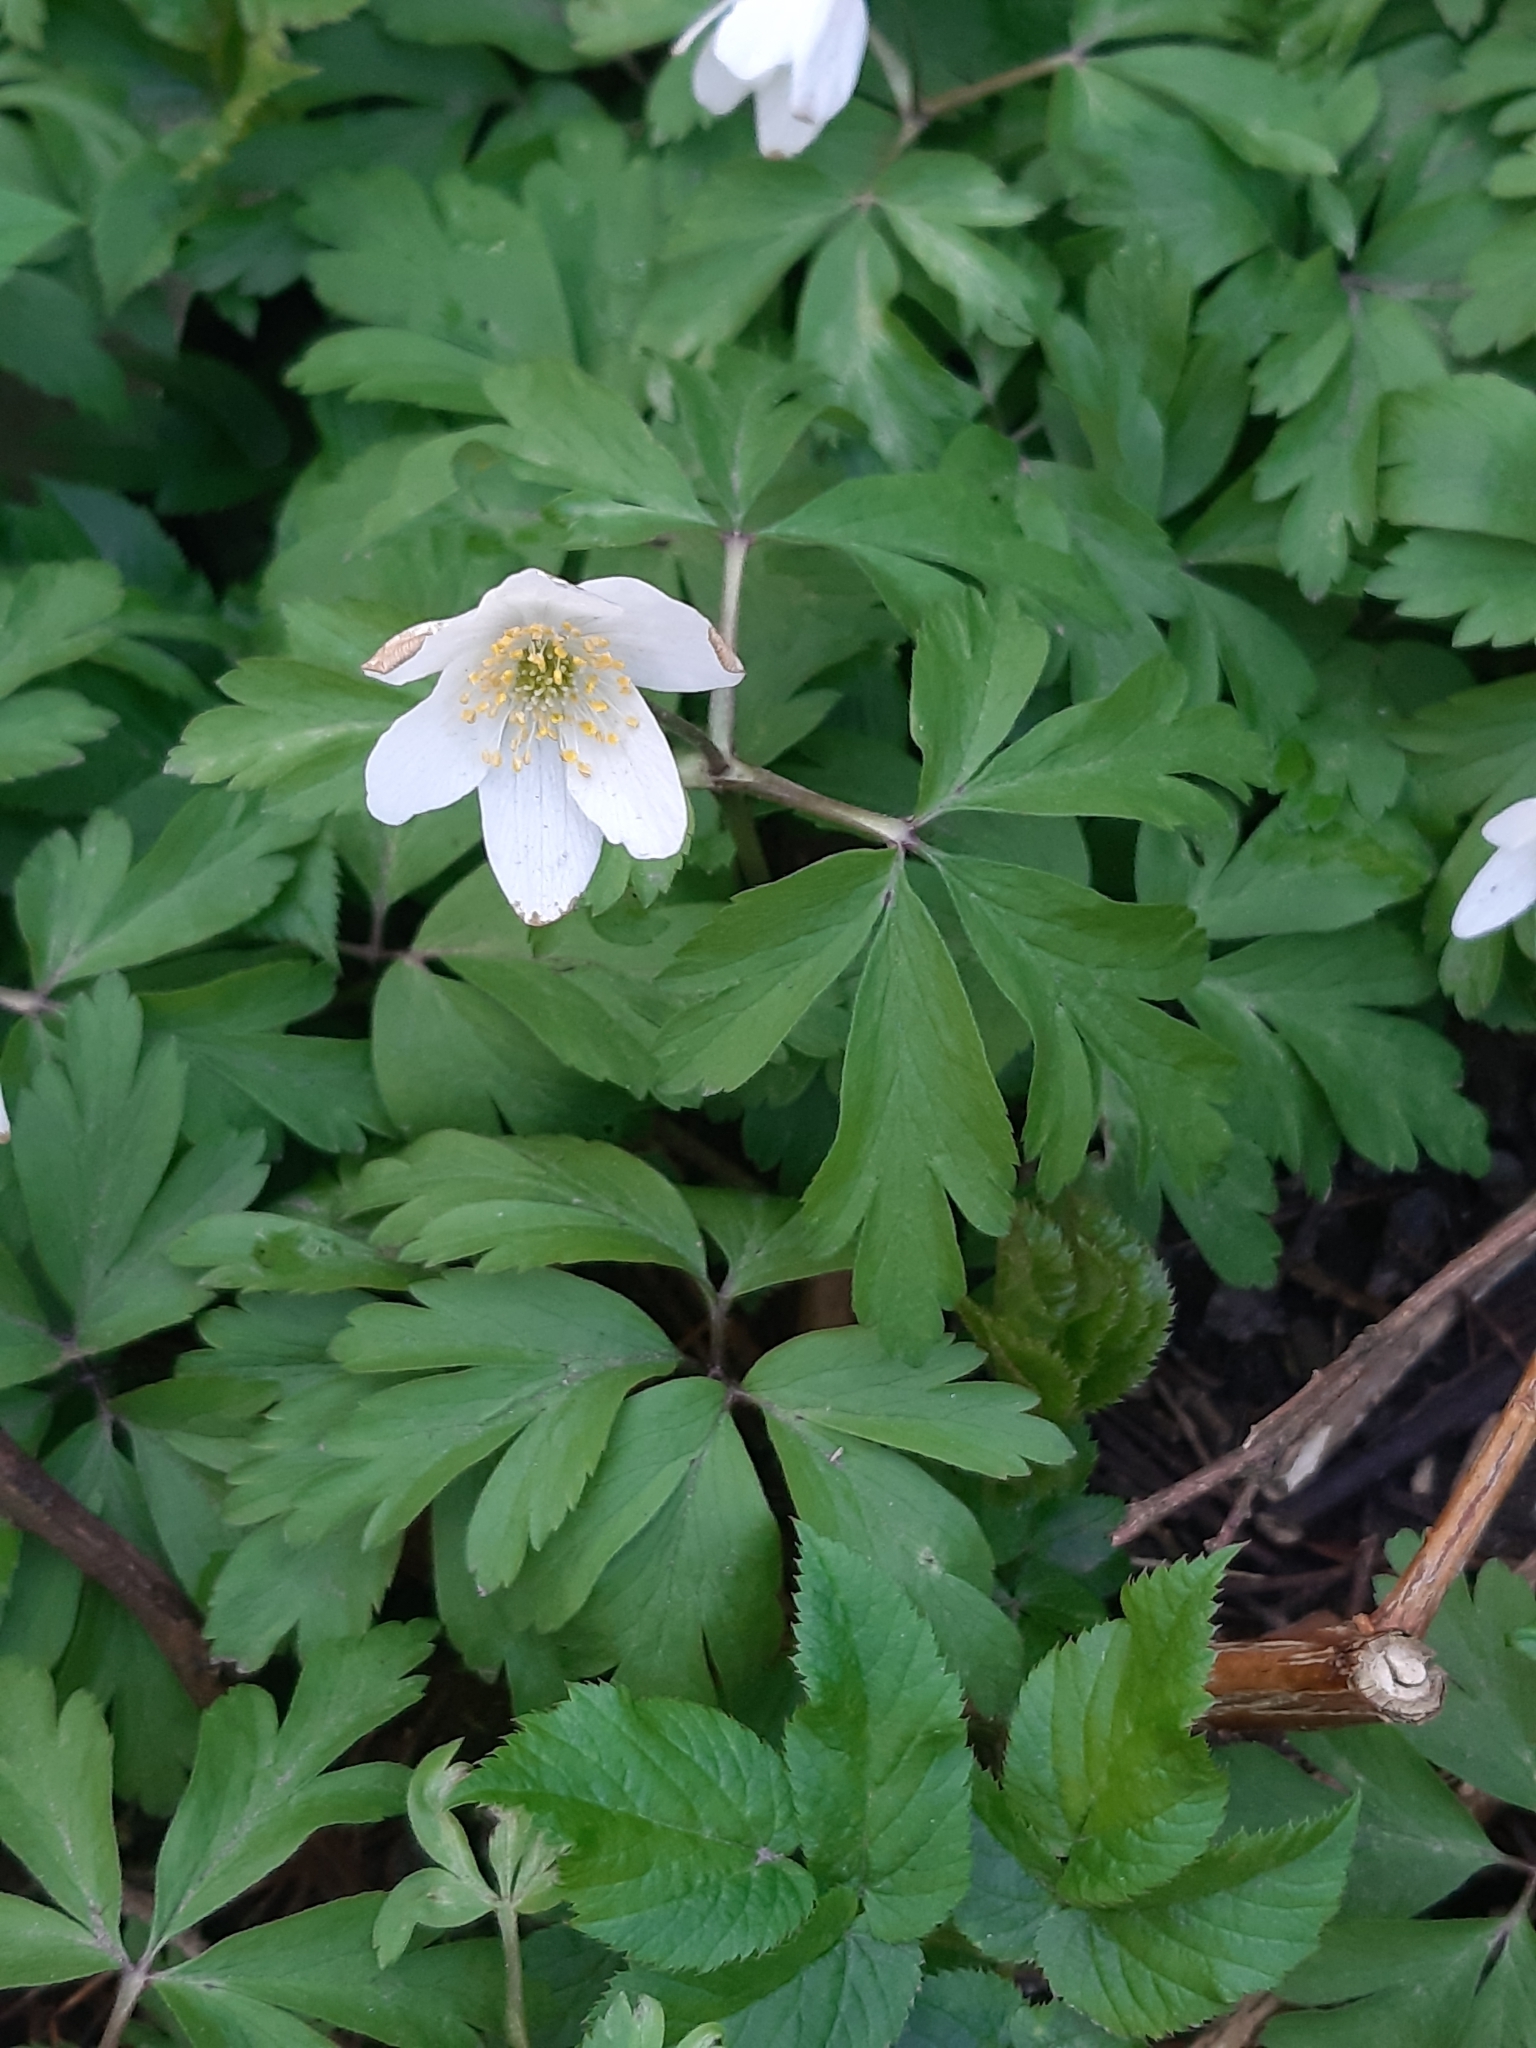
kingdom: Plantae
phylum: Tracheophyta
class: Magnoliopsida
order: Ranunculales
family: Ranunculaceae
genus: Anemone
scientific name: Anemone nemorosa
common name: Wood anemone
